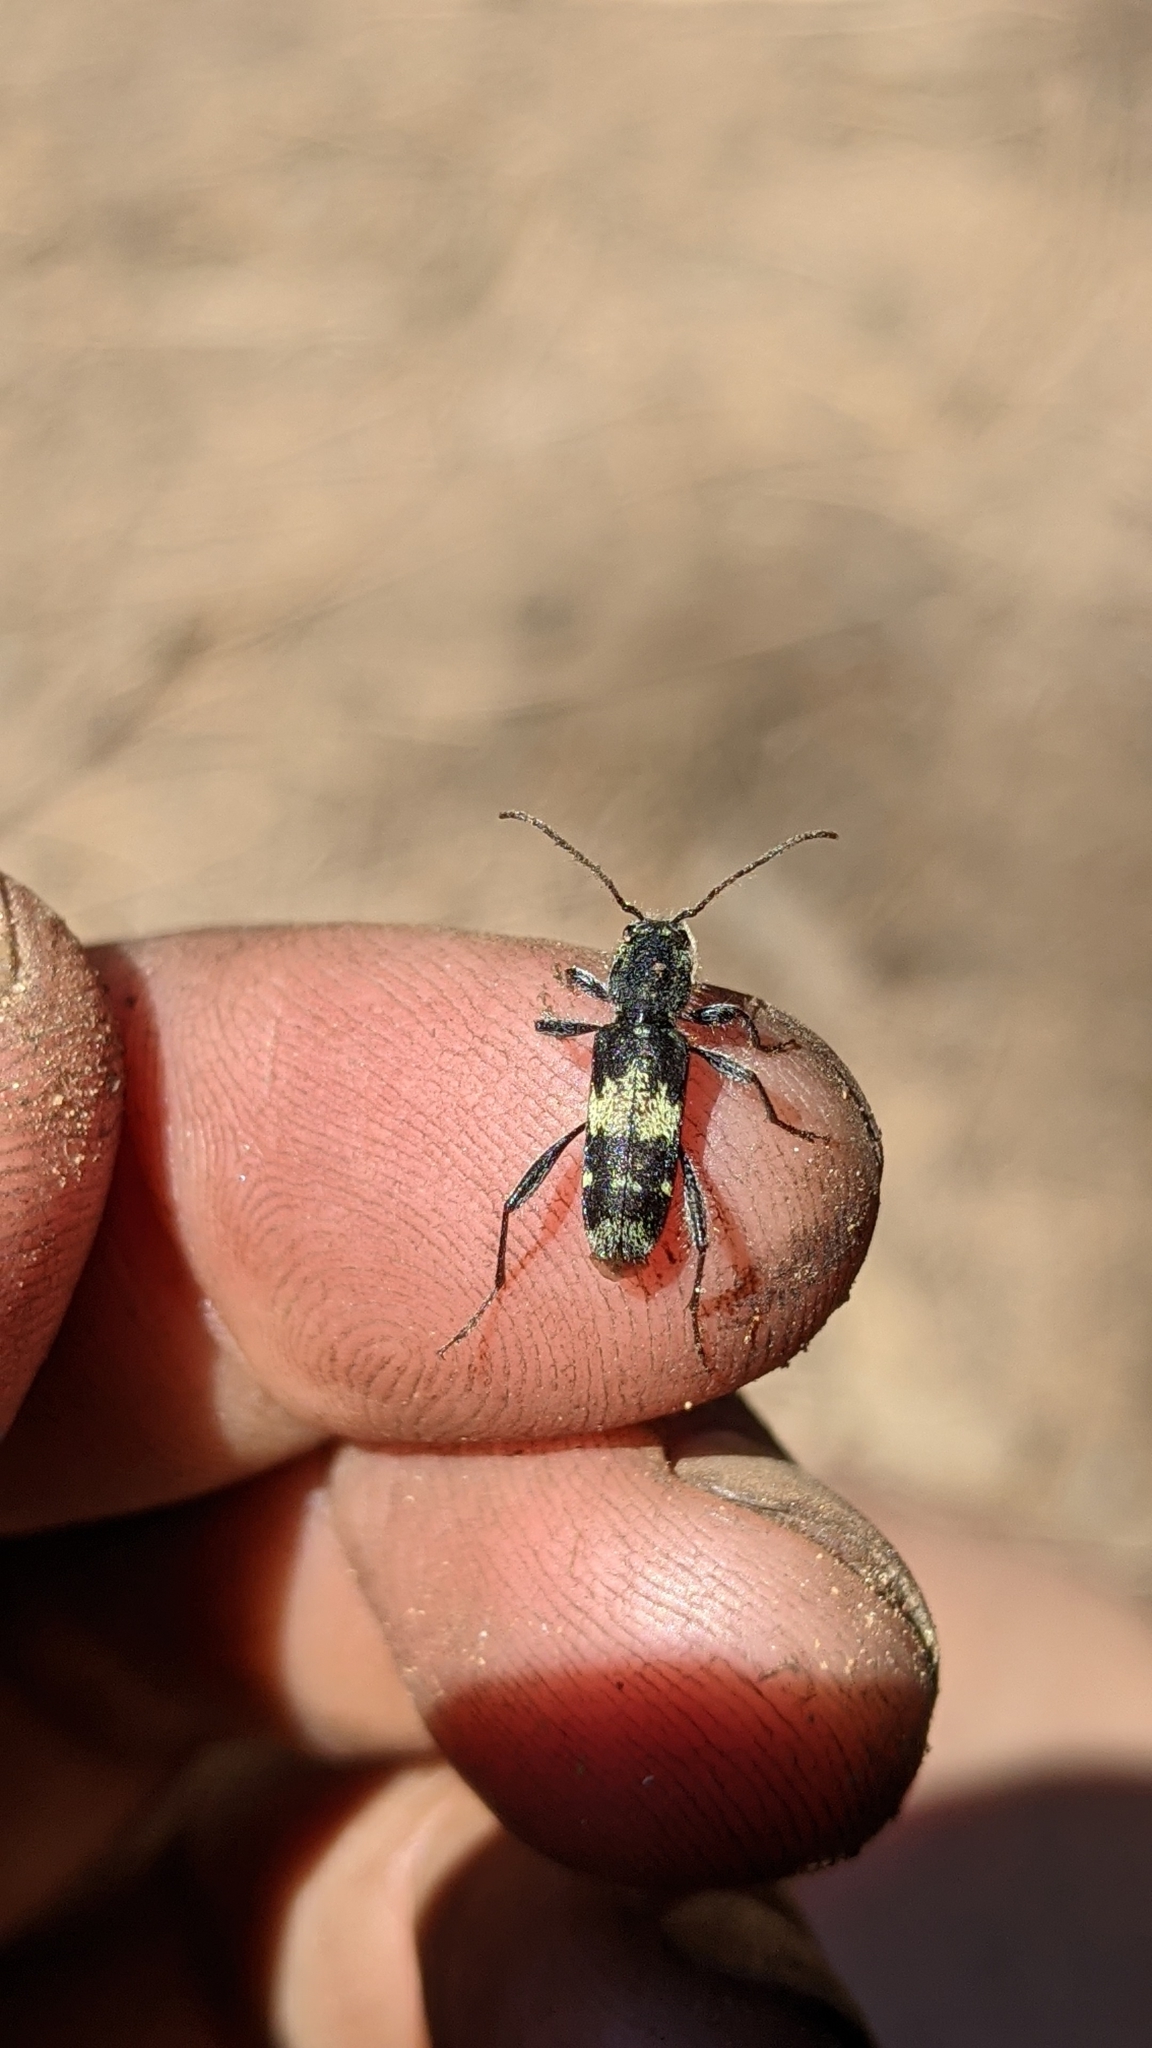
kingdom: Animalia
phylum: Arthropoda
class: Insecta
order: Coleoptera
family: Cerambycidae
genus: Clytus
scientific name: Clytus clitellarius
